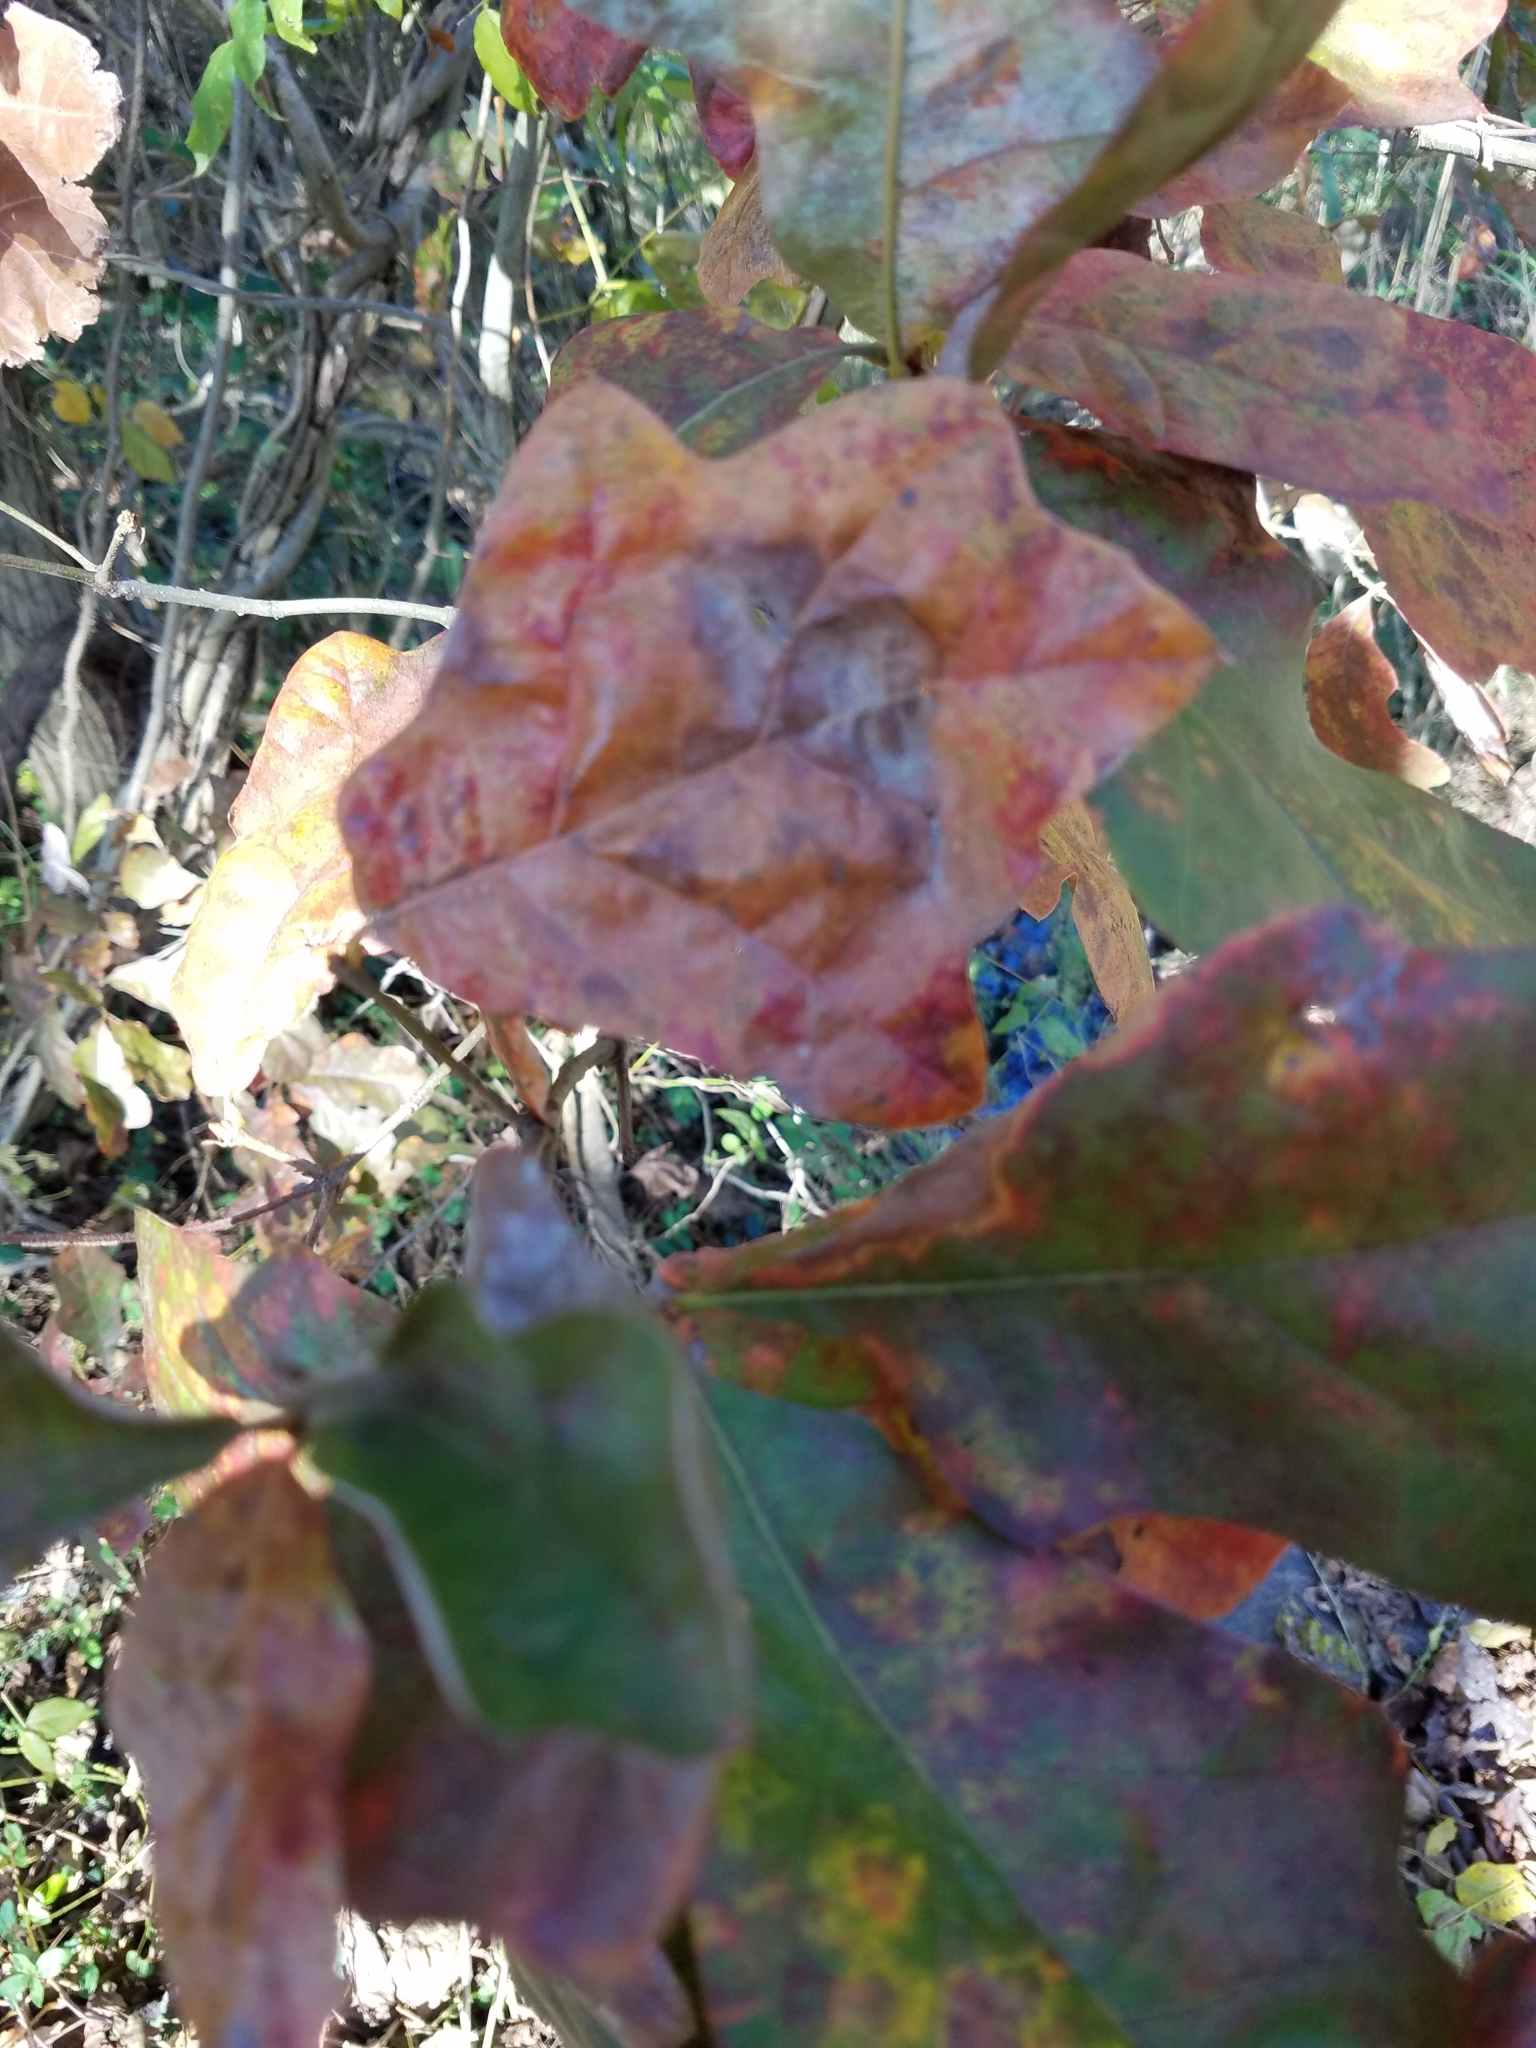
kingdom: Plantae
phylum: Tracheophyta
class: Magnoliopsida
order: Fagales
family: Fagaceae
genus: Quercus
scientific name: Quercus marilandica
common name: Blackjack oak
